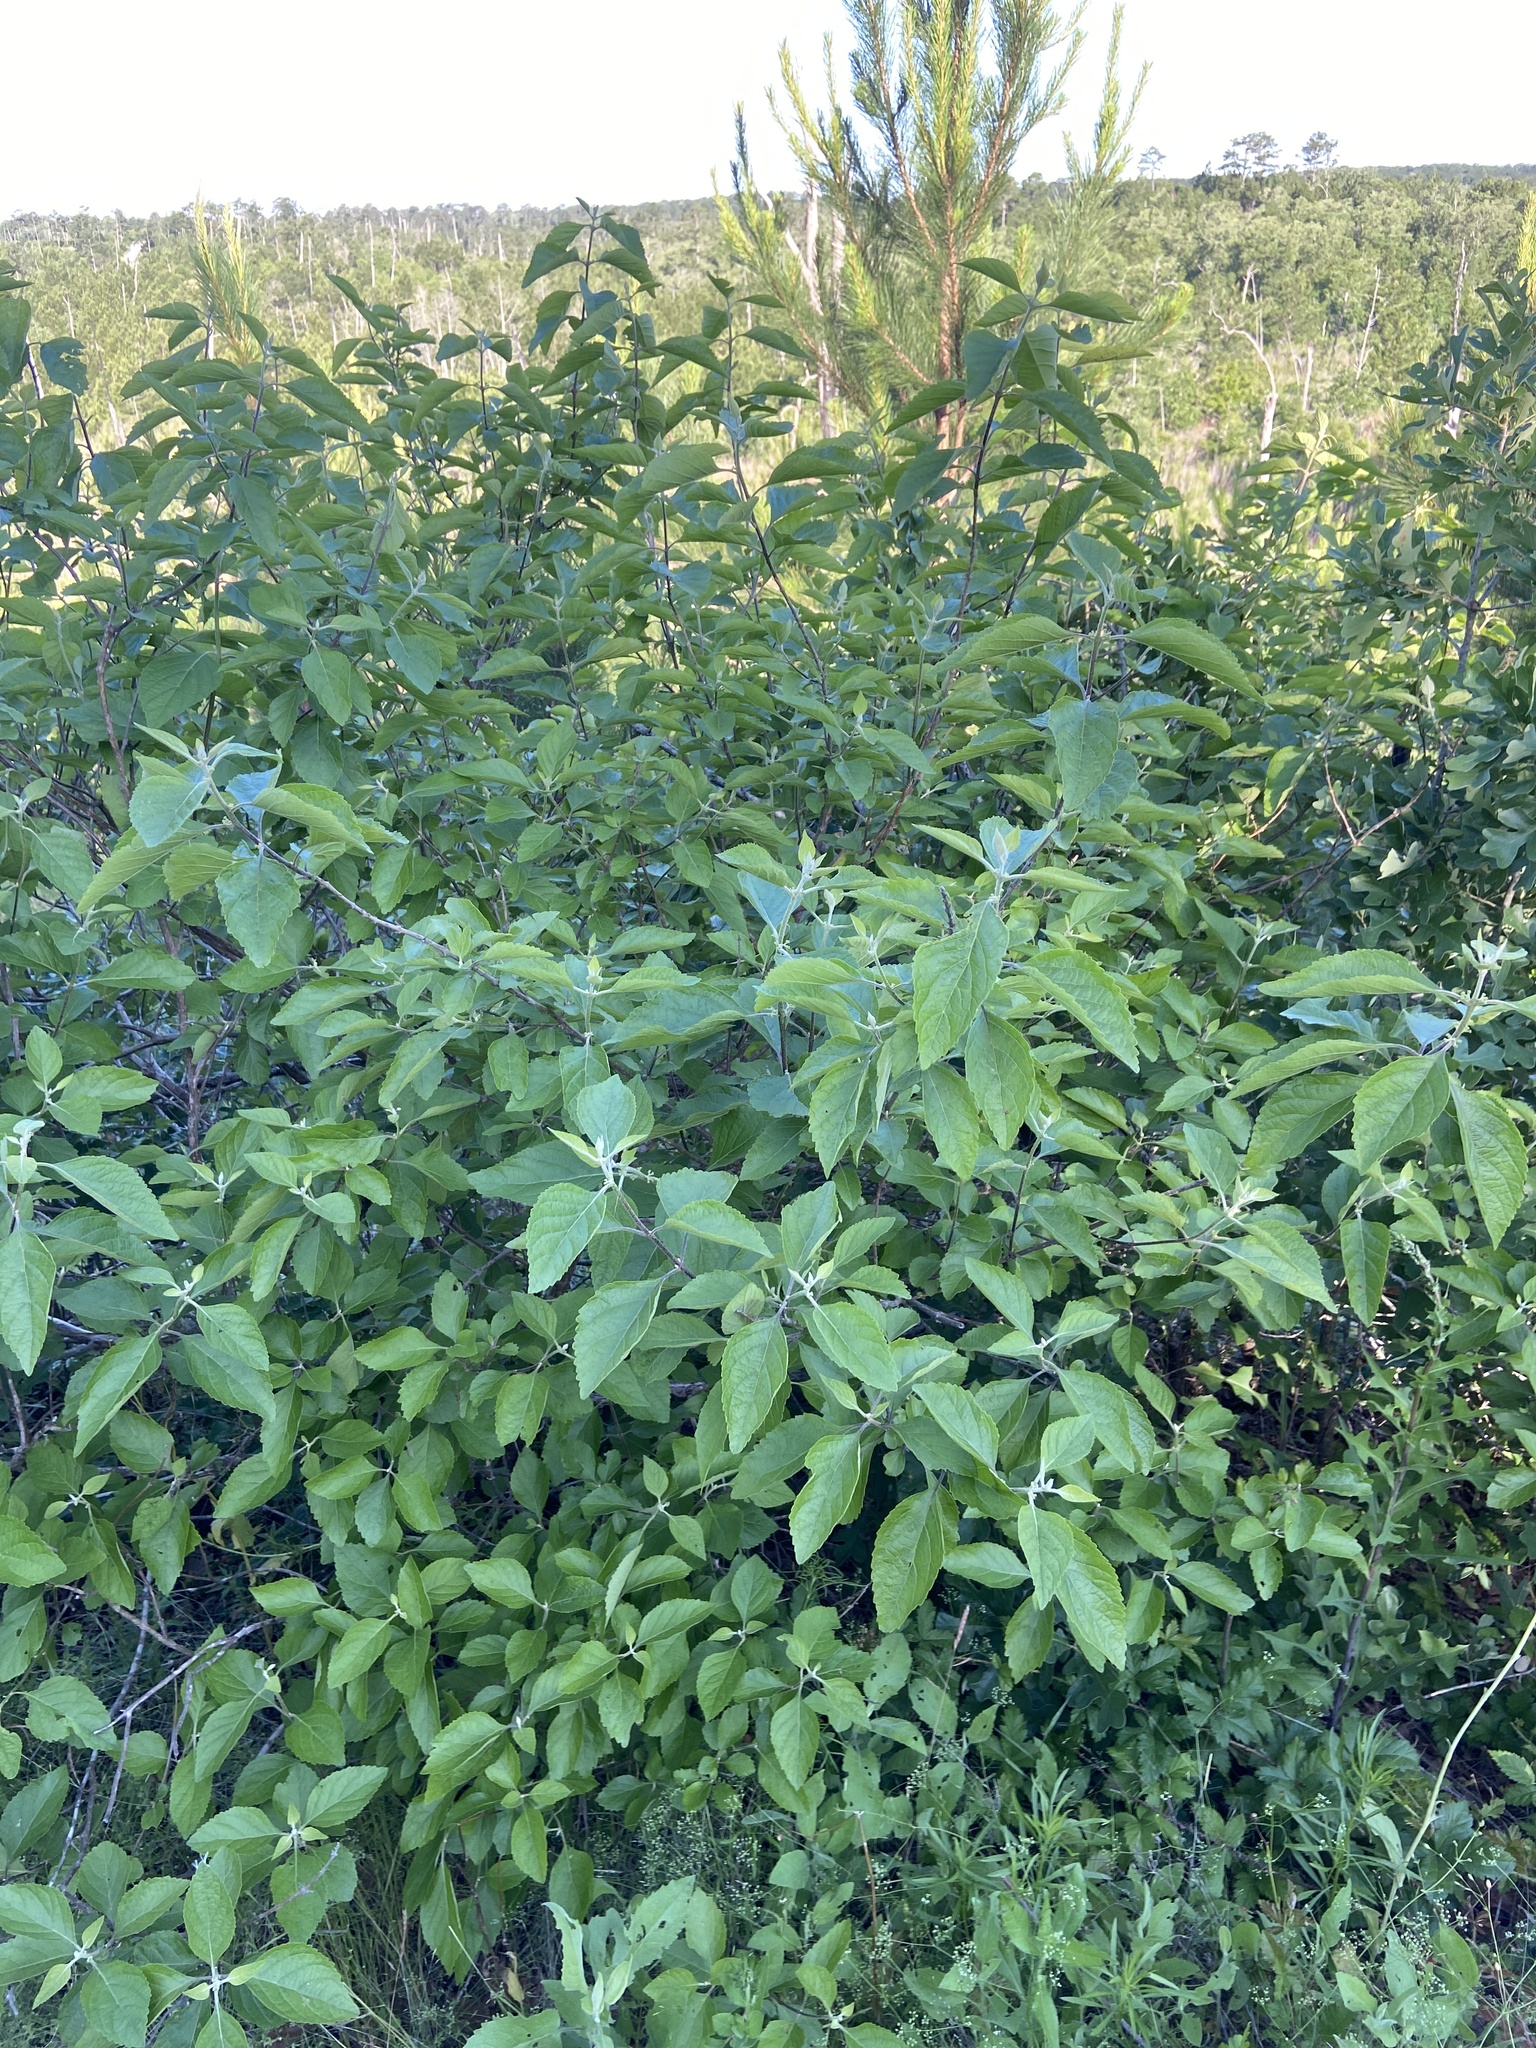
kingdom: Plantae
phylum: Tracheophyta
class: Magnoliopsida
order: Lamiales
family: Lamiaceae
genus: Callicarpa
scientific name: Callicarpa americana
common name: American beautyberry
